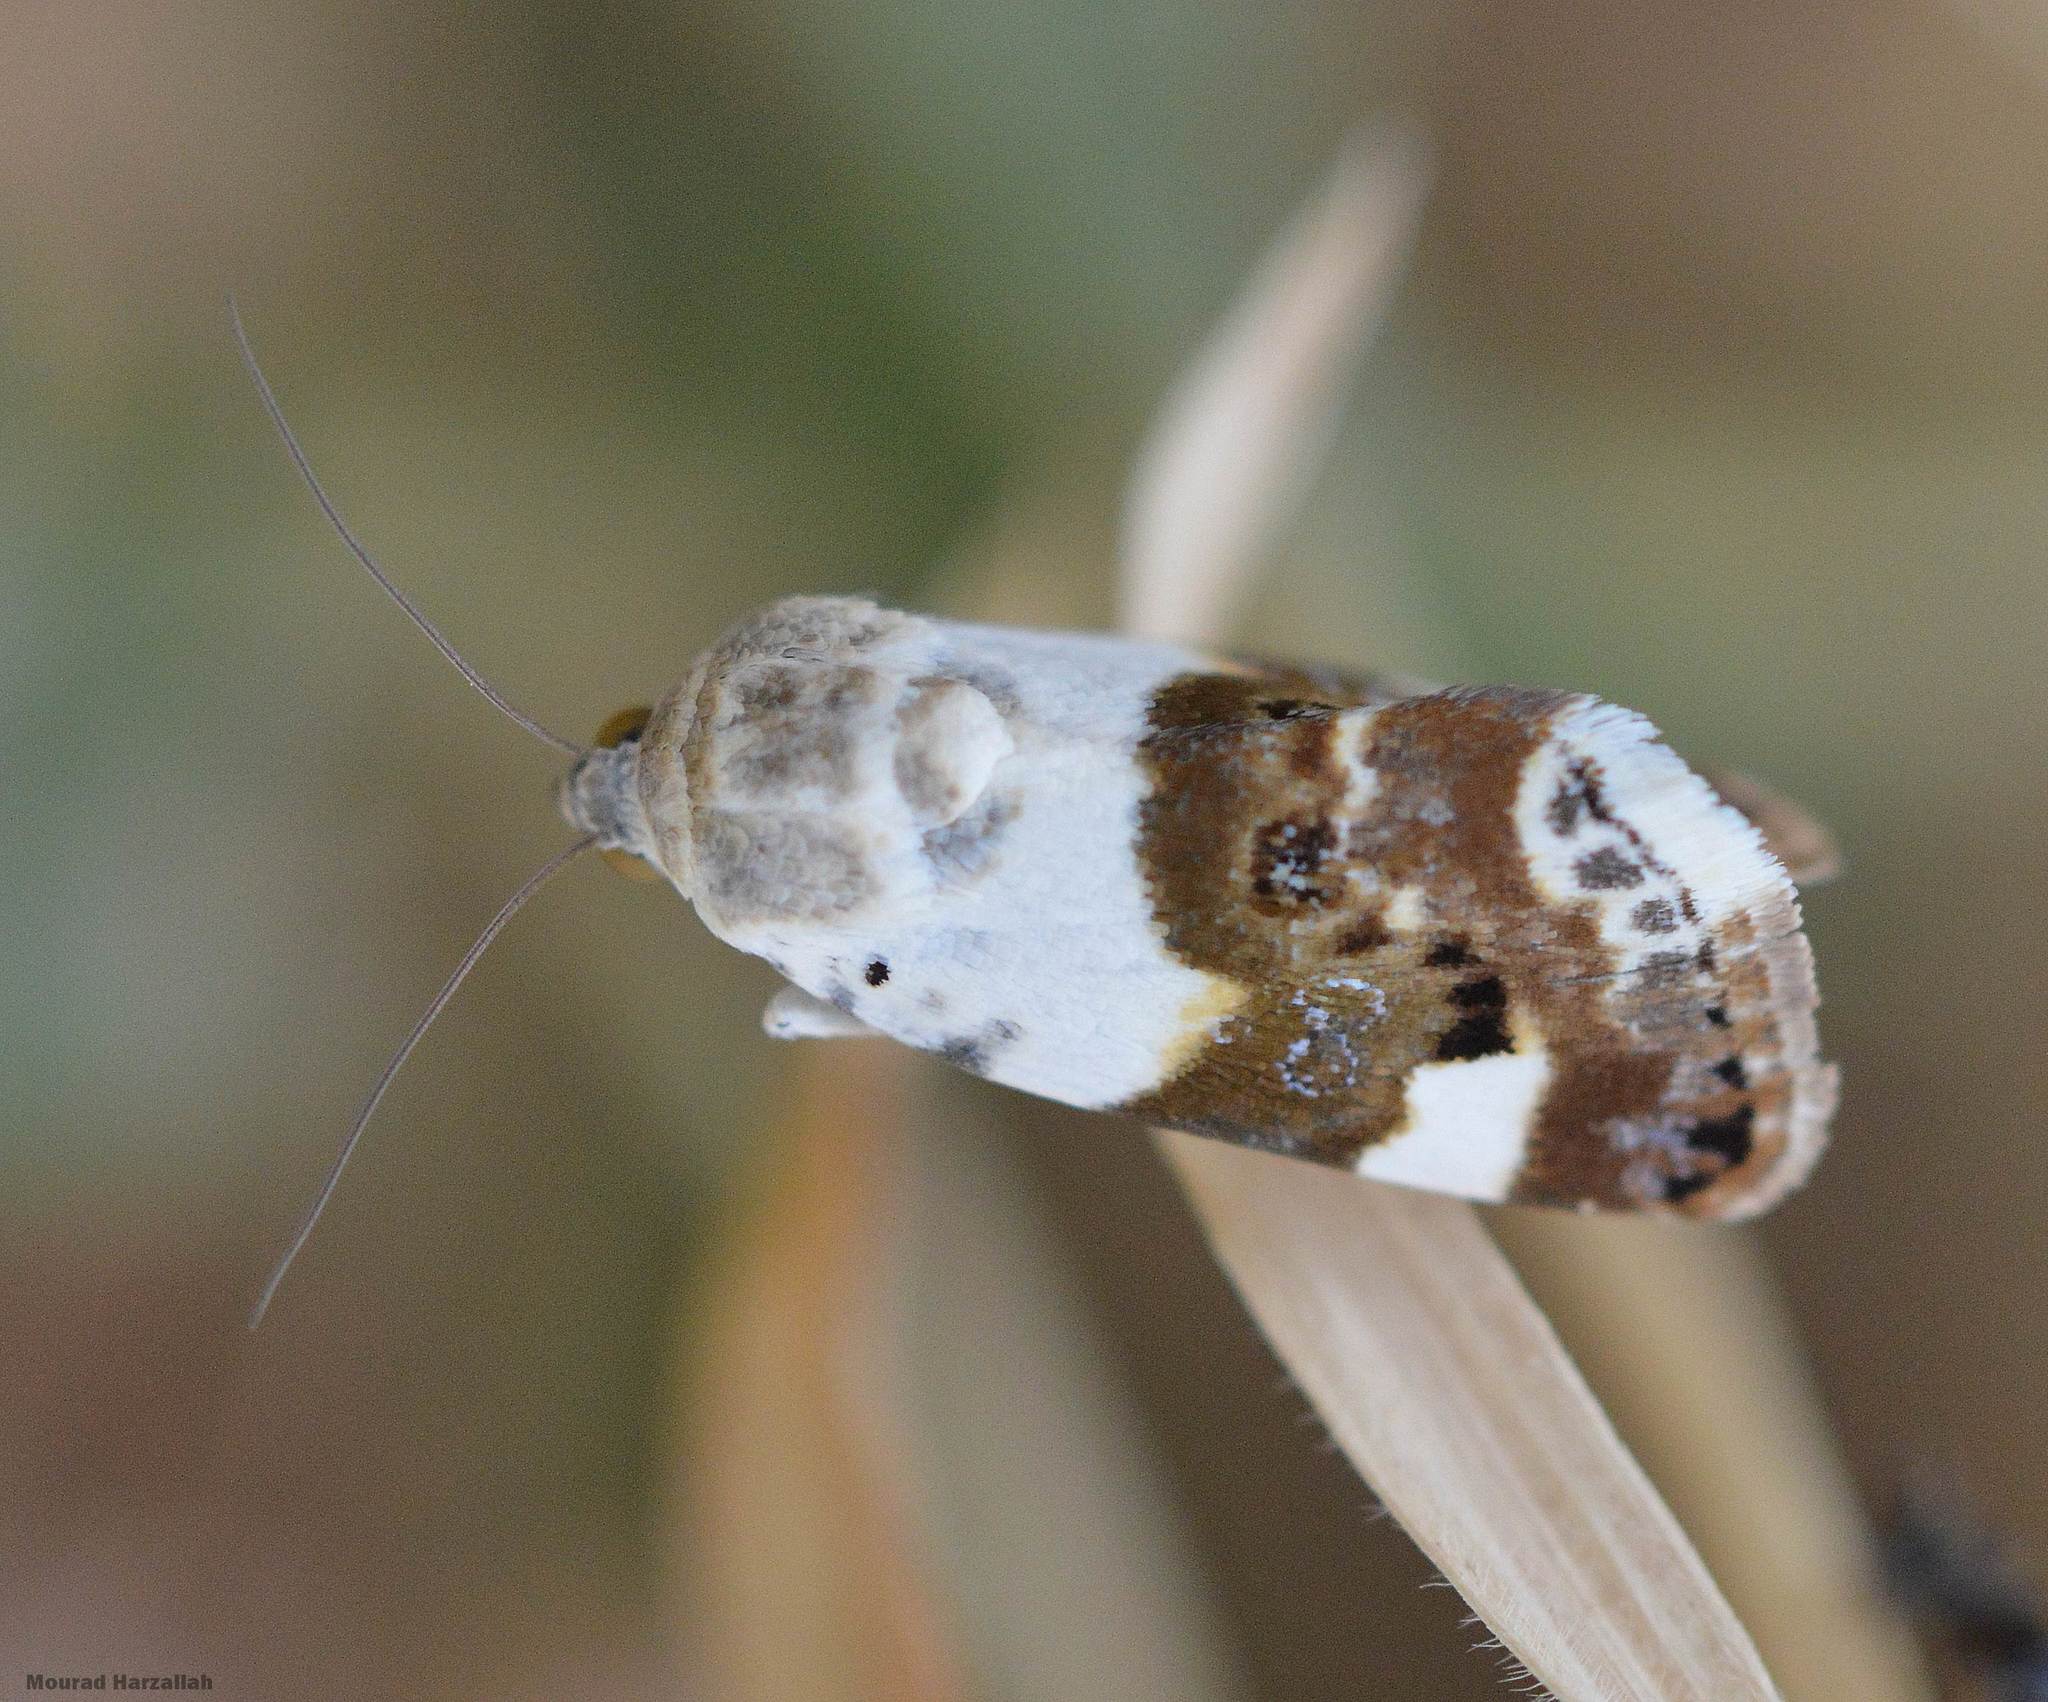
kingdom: Animalia
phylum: Arthropoda
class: Insecta
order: Lepidoptera
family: Noctuidae
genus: Acontia
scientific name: Acontia lucida
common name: Pale shoulder
